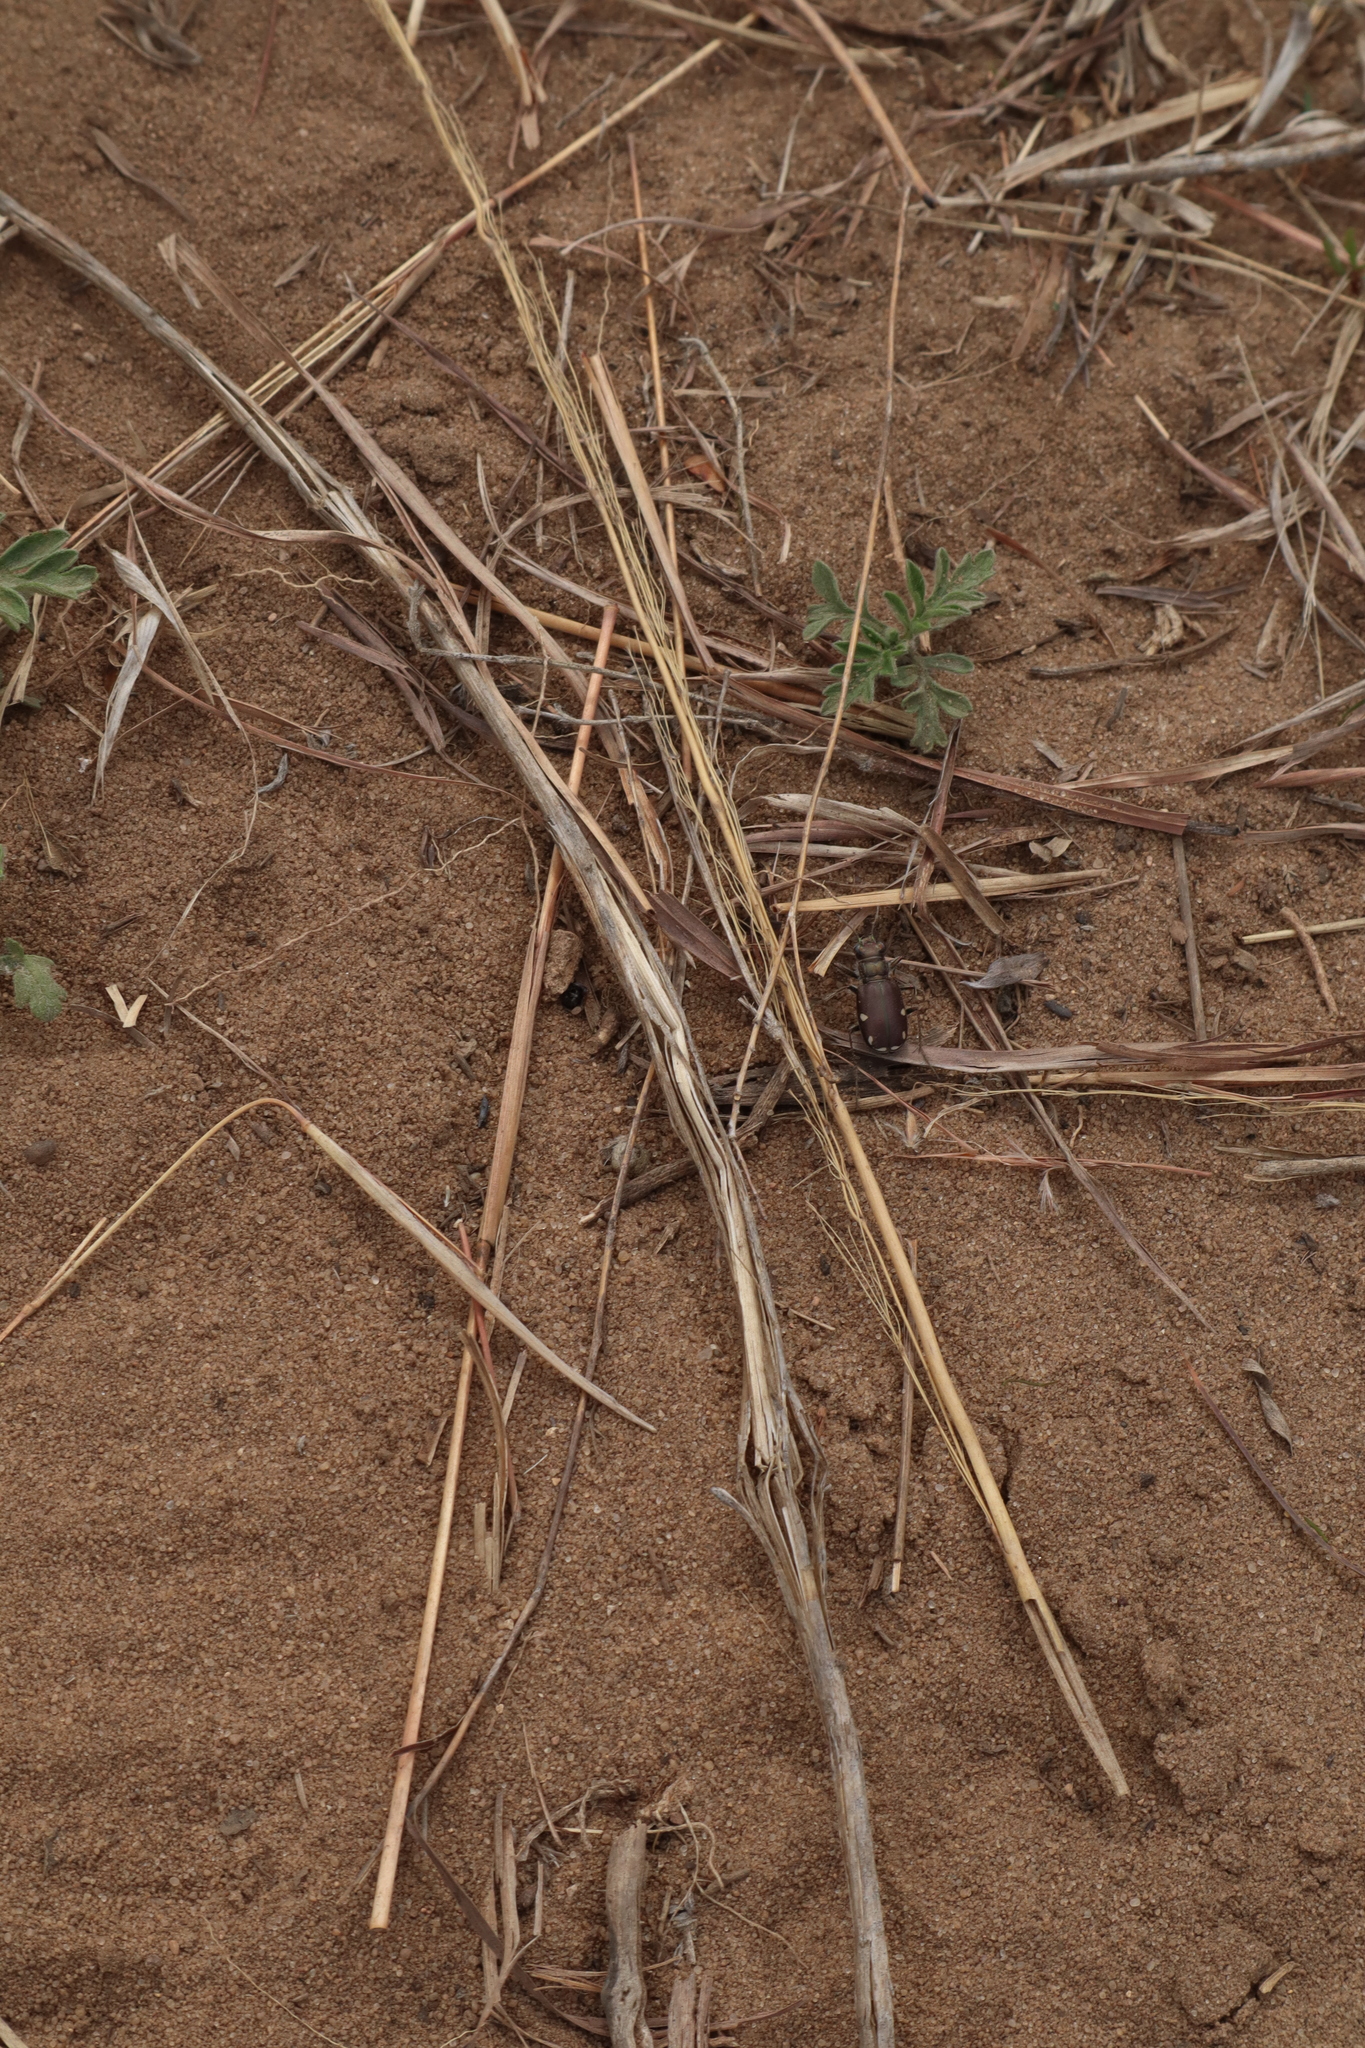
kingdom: Animalia
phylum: Arthropoda
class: Insecta
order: Coleoptera
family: Carabidae
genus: Cicindela
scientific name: Cicindela scutellaris
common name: Festive tiger beetle
